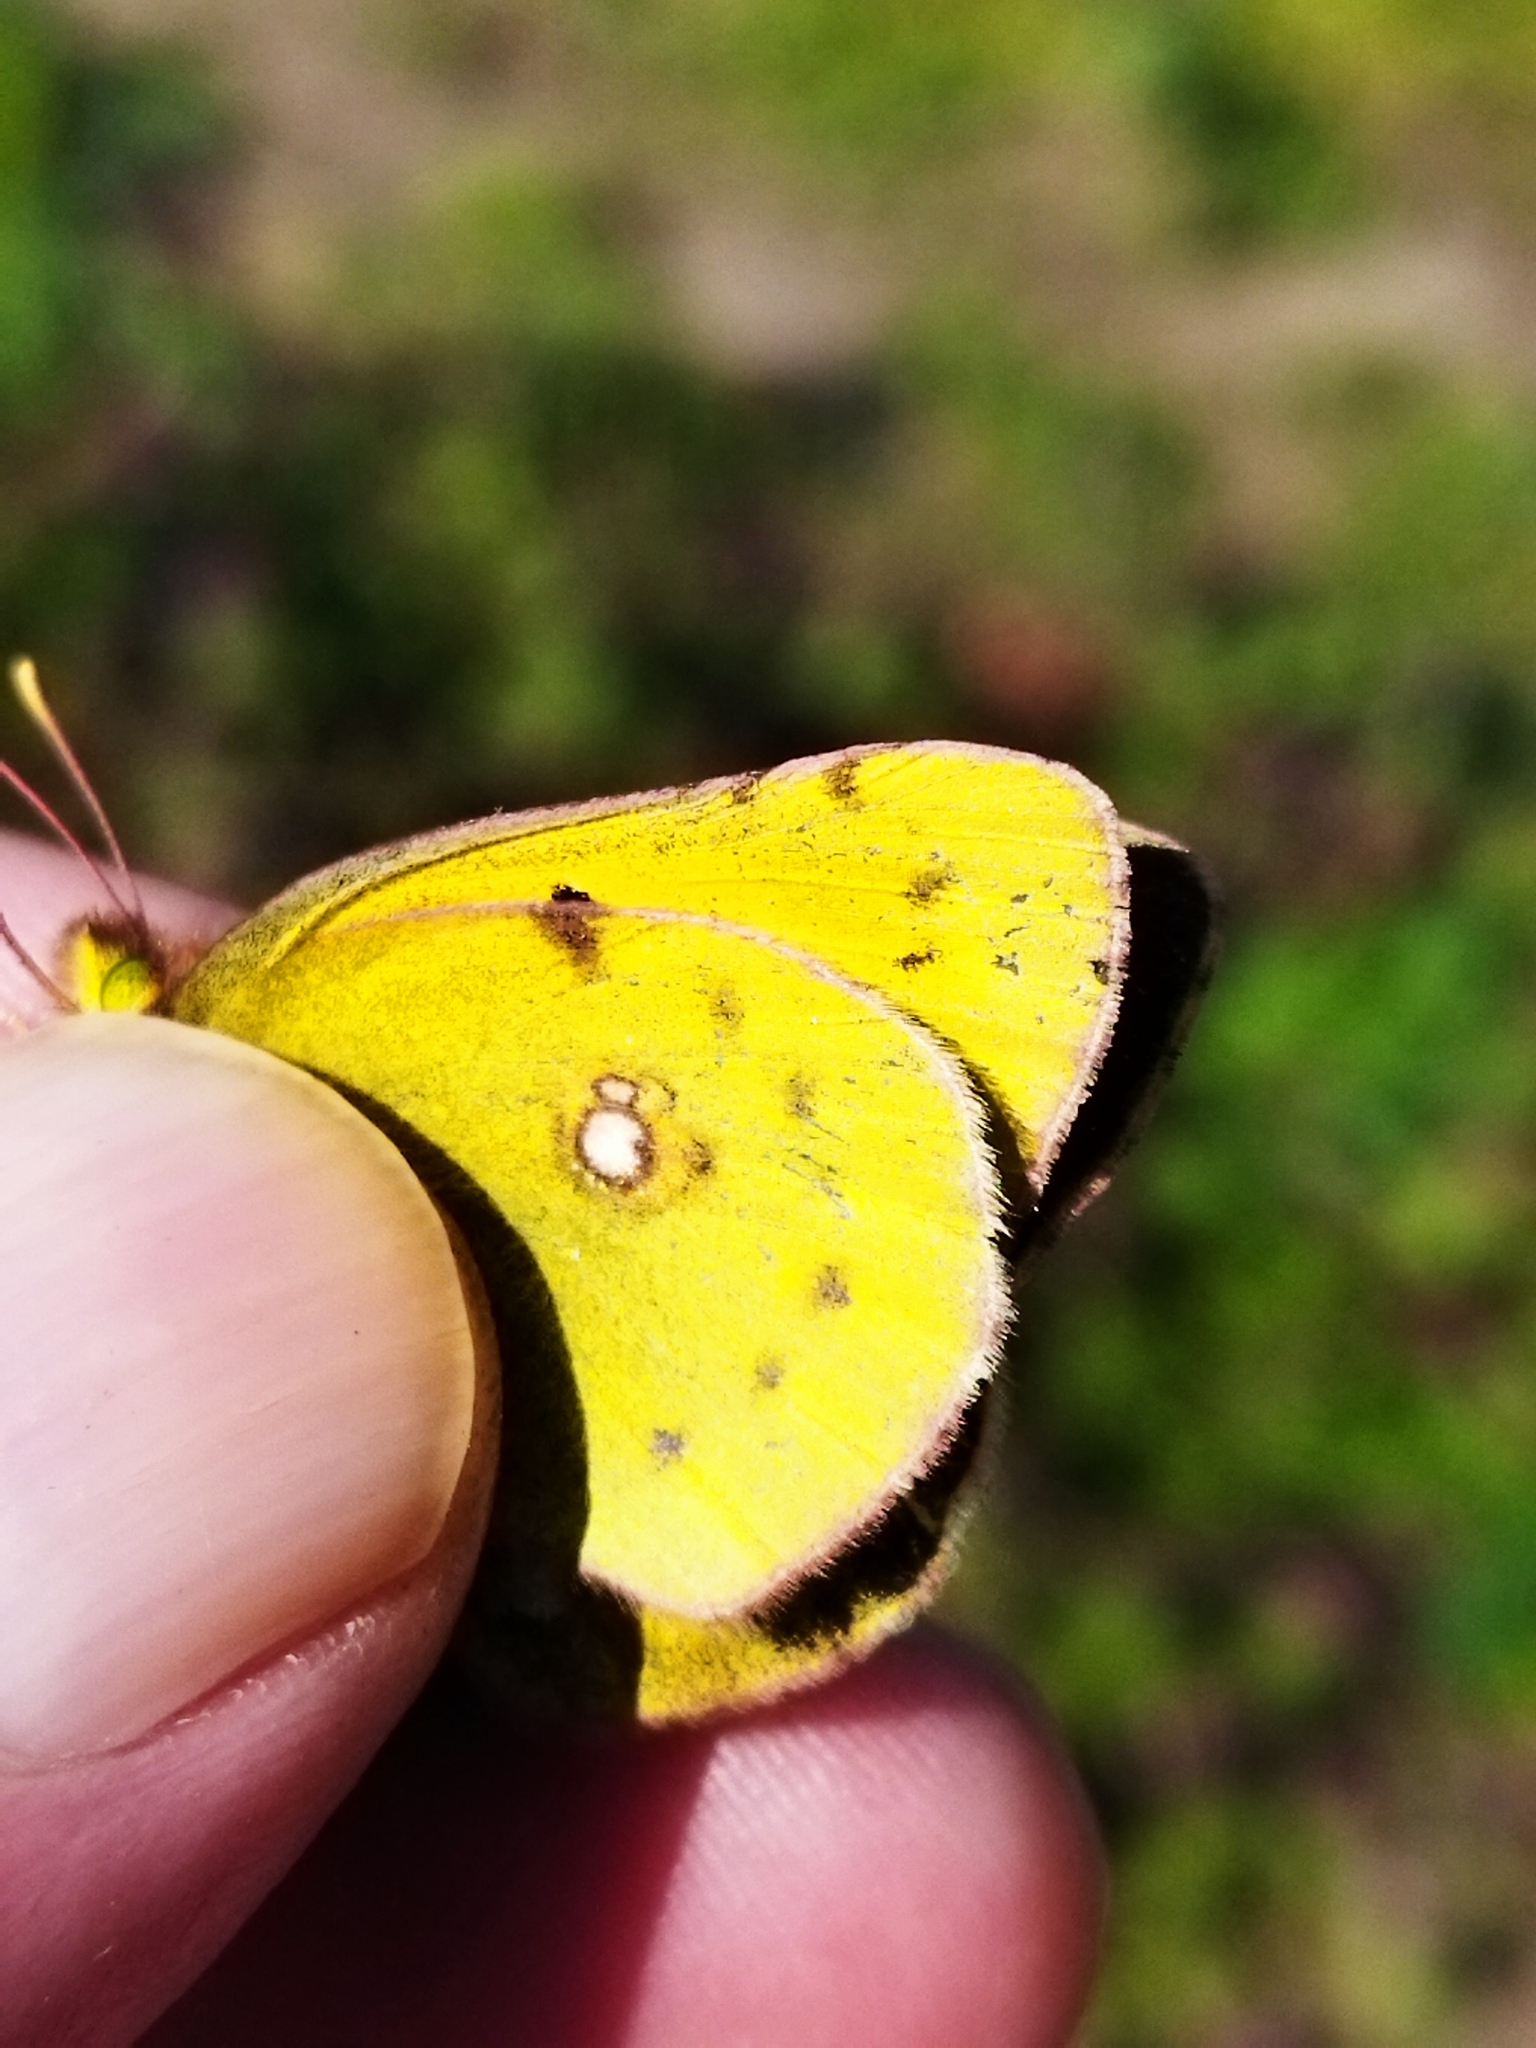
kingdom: Animalia
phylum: Arthropoda
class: Insecta
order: Lepidoptera
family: Pieridae
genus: Colias
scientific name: Colias
